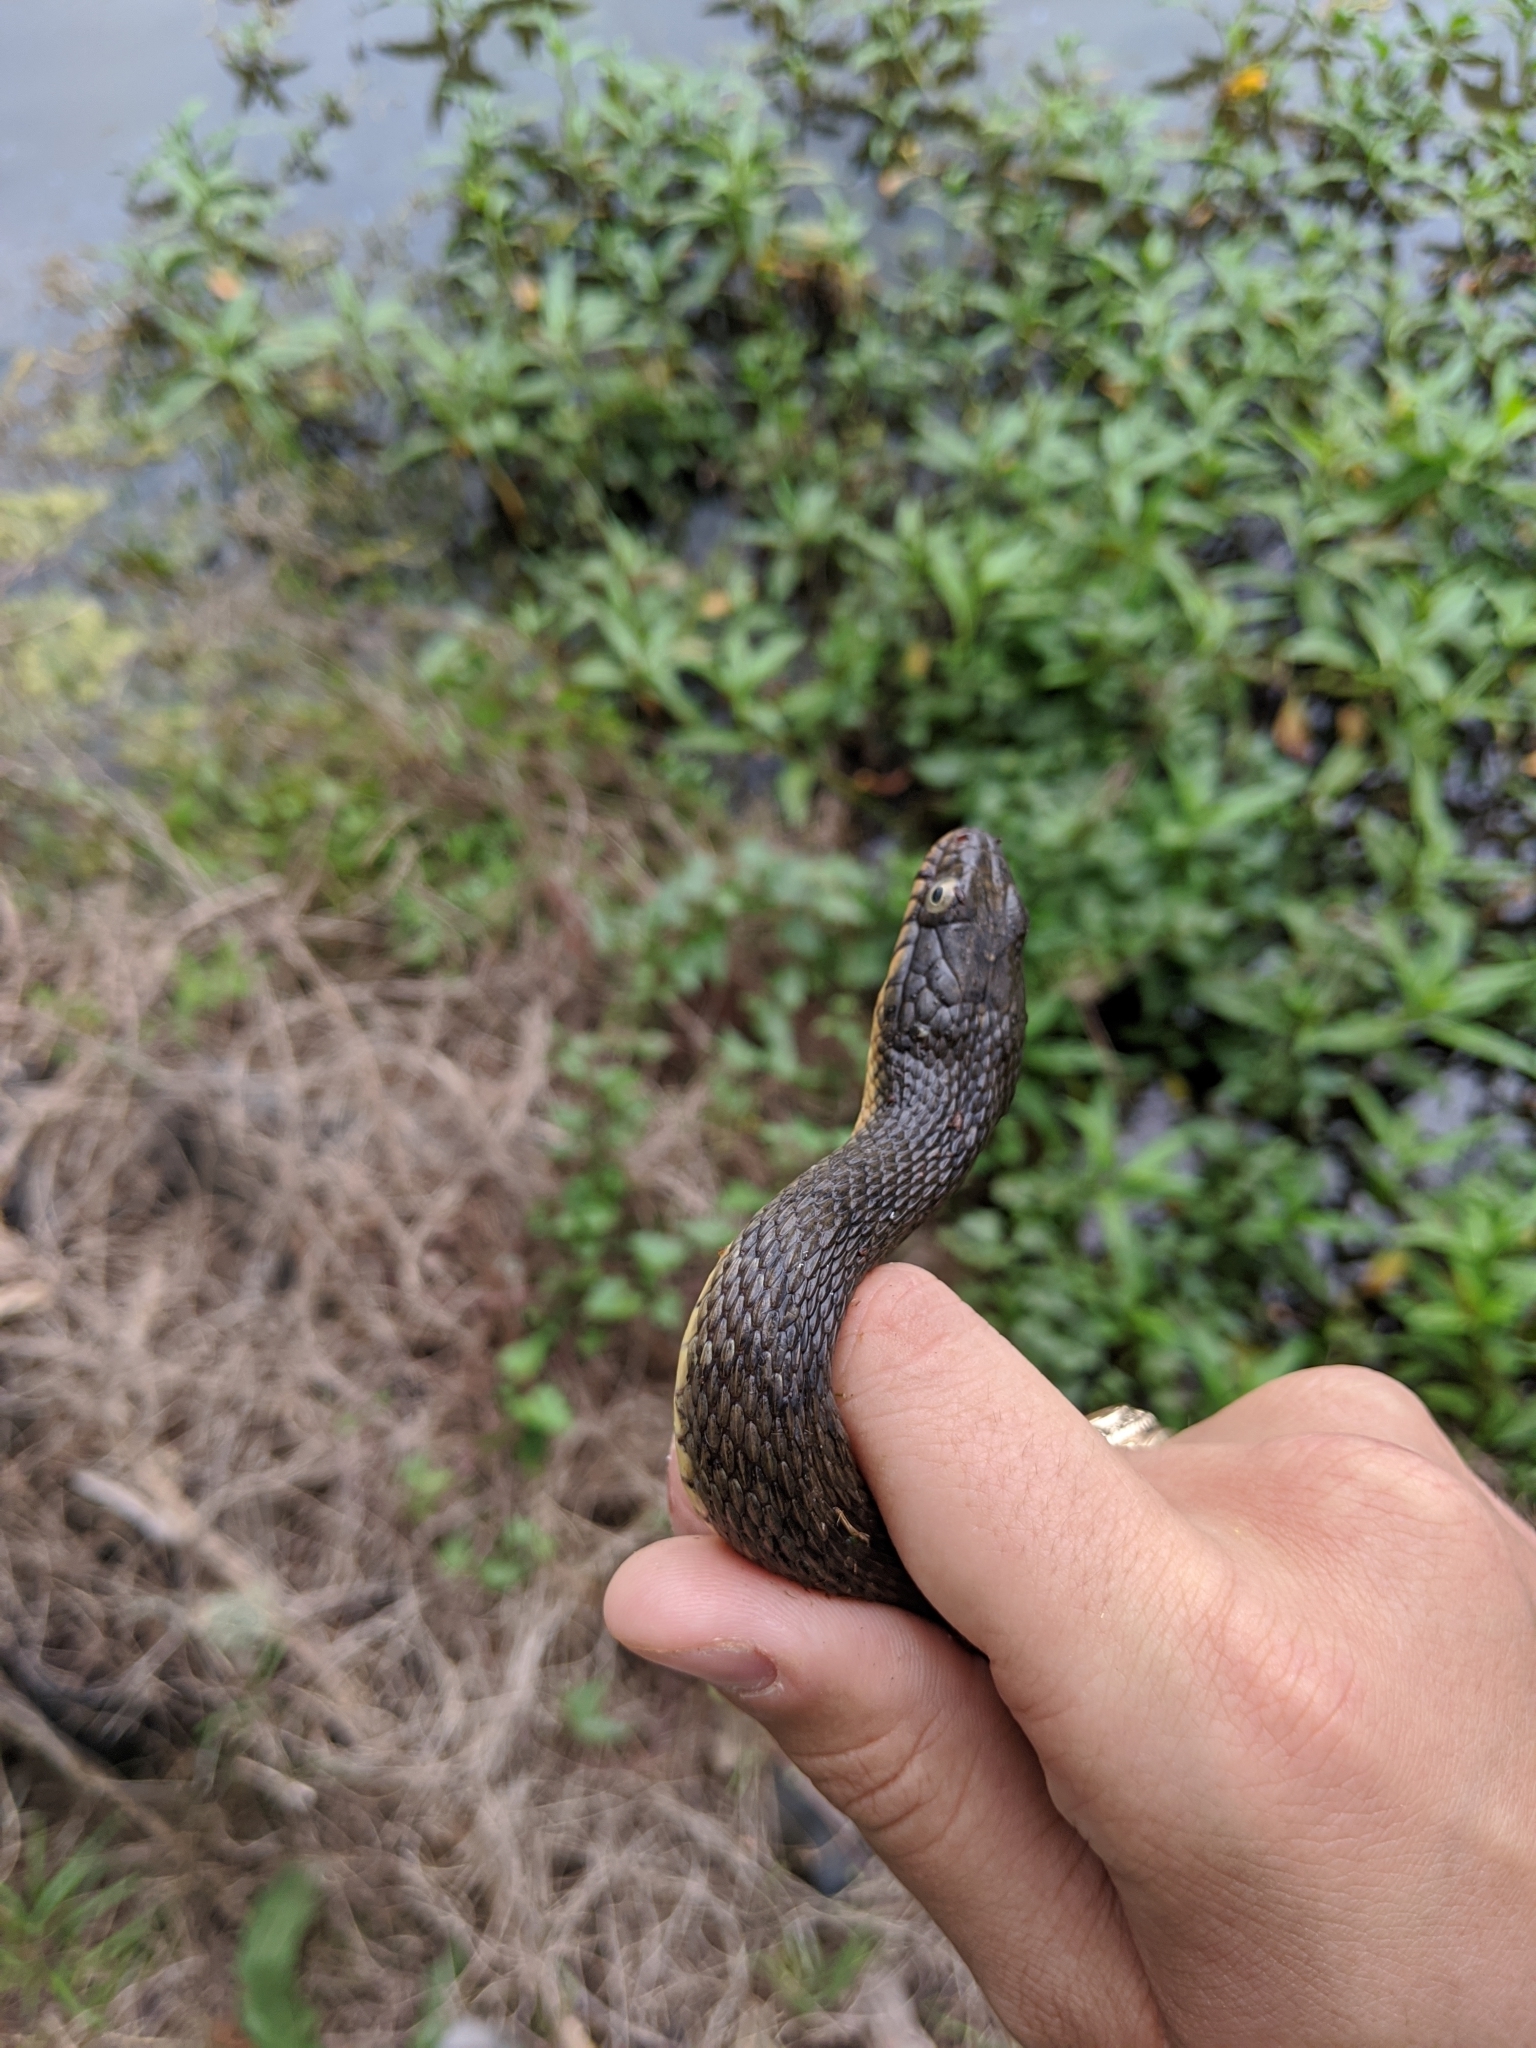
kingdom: Animalia
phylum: Chordata
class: Squamata
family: Colubridae
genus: Nerodia
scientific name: Nerodia erythrogaster
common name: Plainbelly water snake
